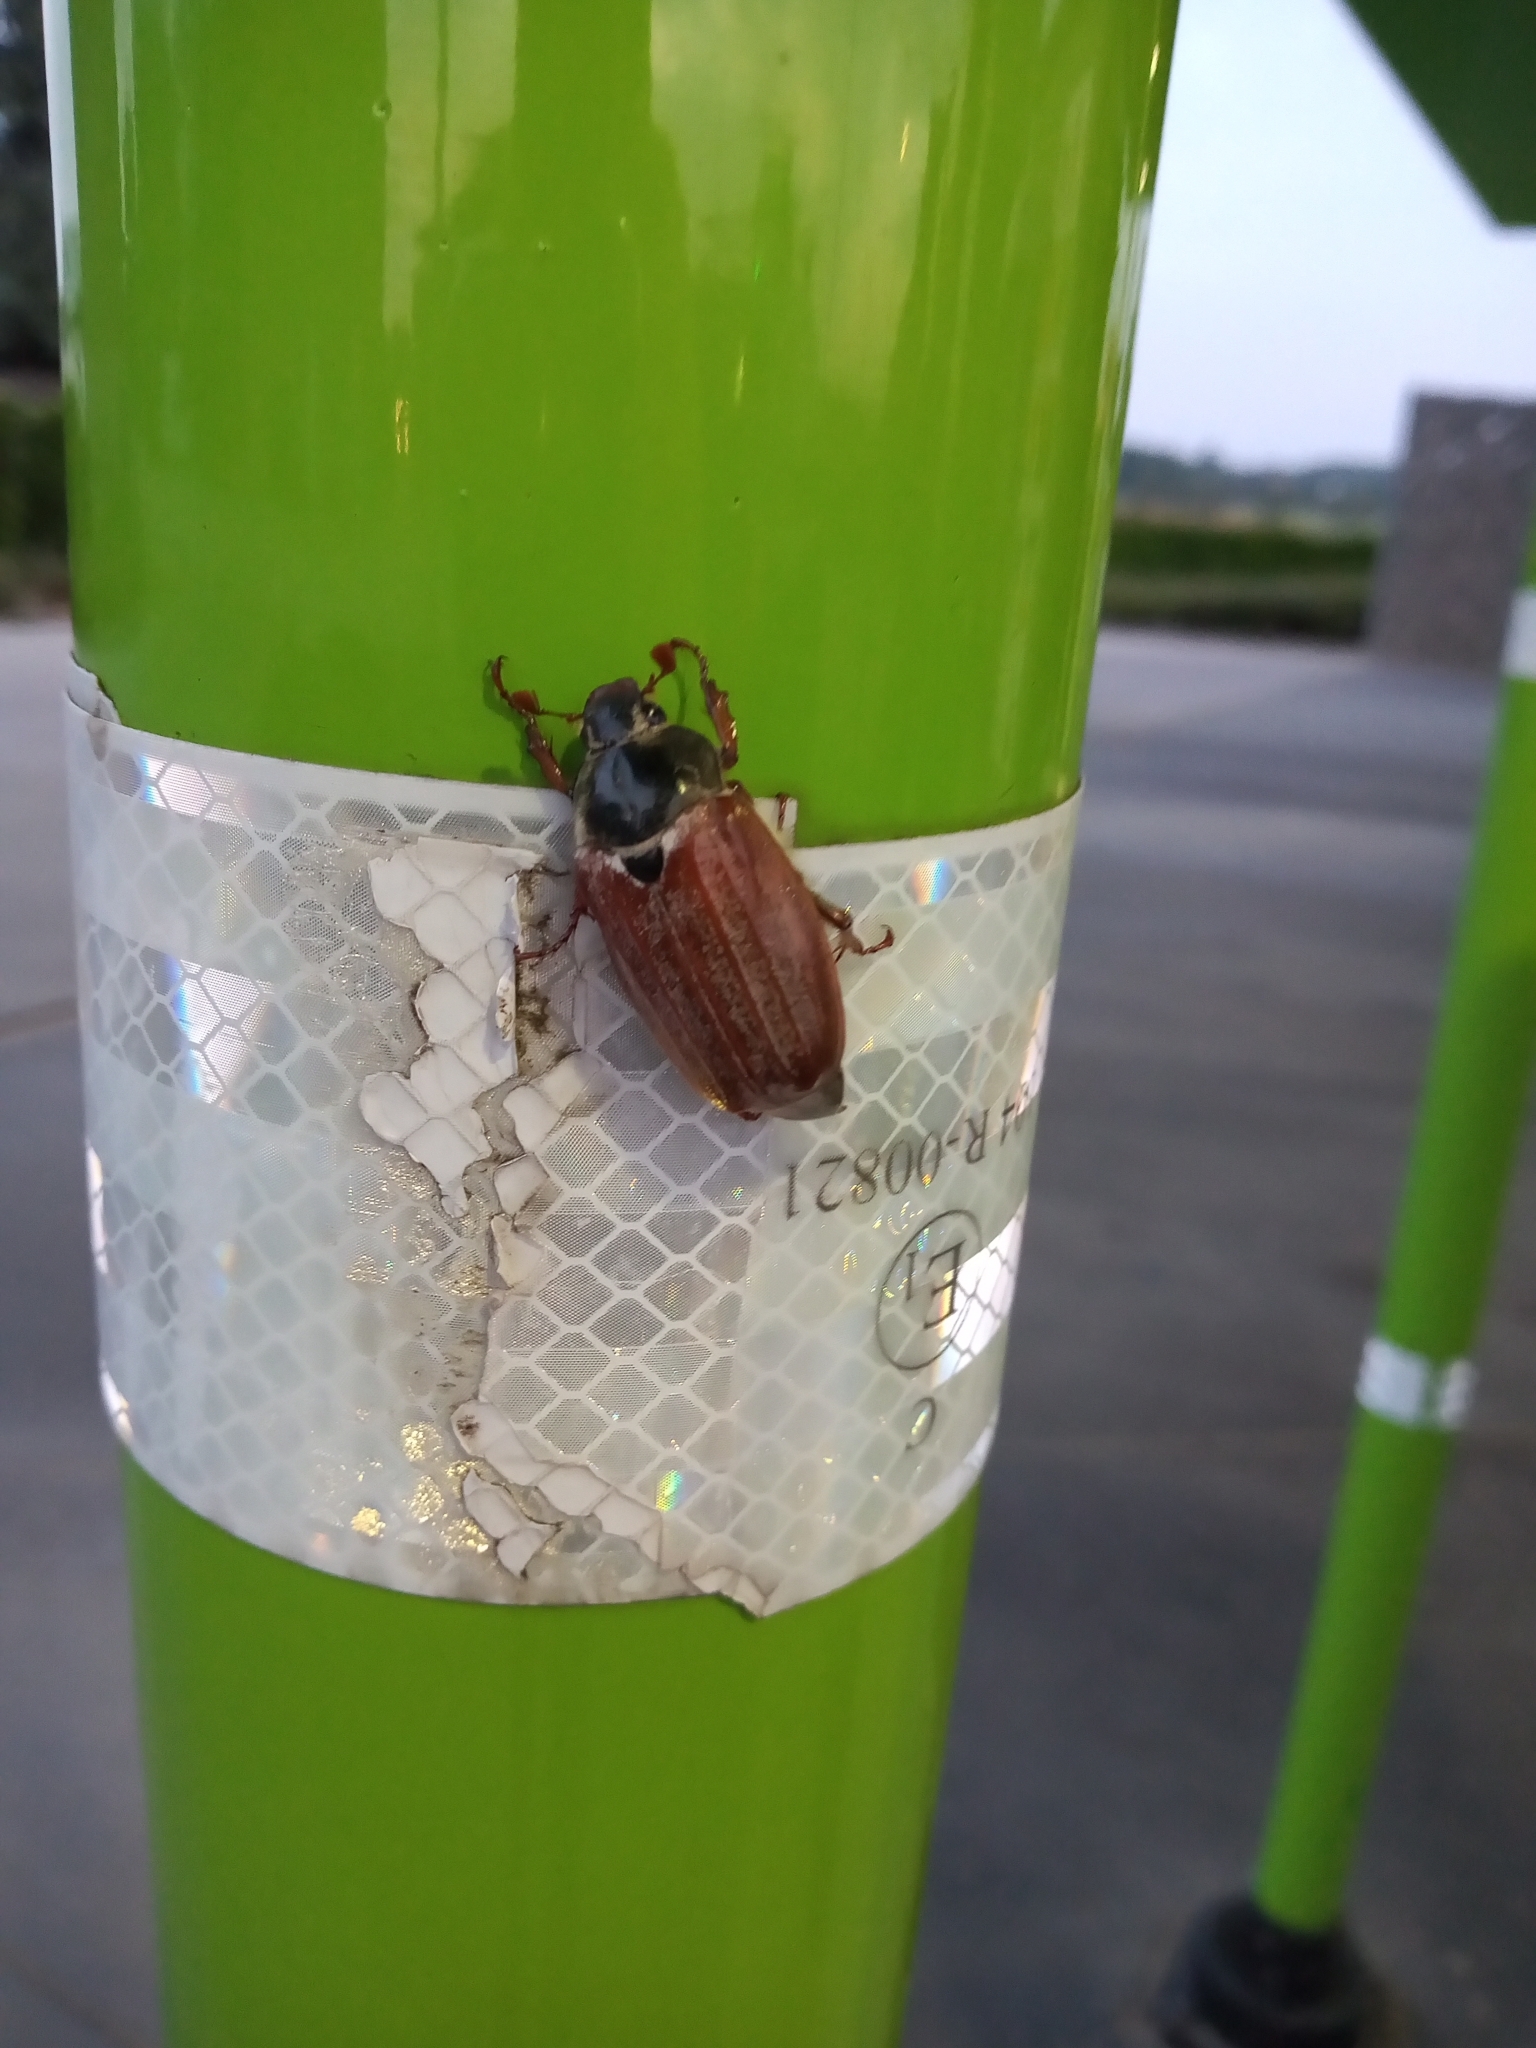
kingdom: Animalia
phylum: Arthropoda
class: Insecta
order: Coleoptera
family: Scarabaeidae
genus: Melolontha
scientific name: Melolontha melolontha
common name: Cockchafer maybeetle
